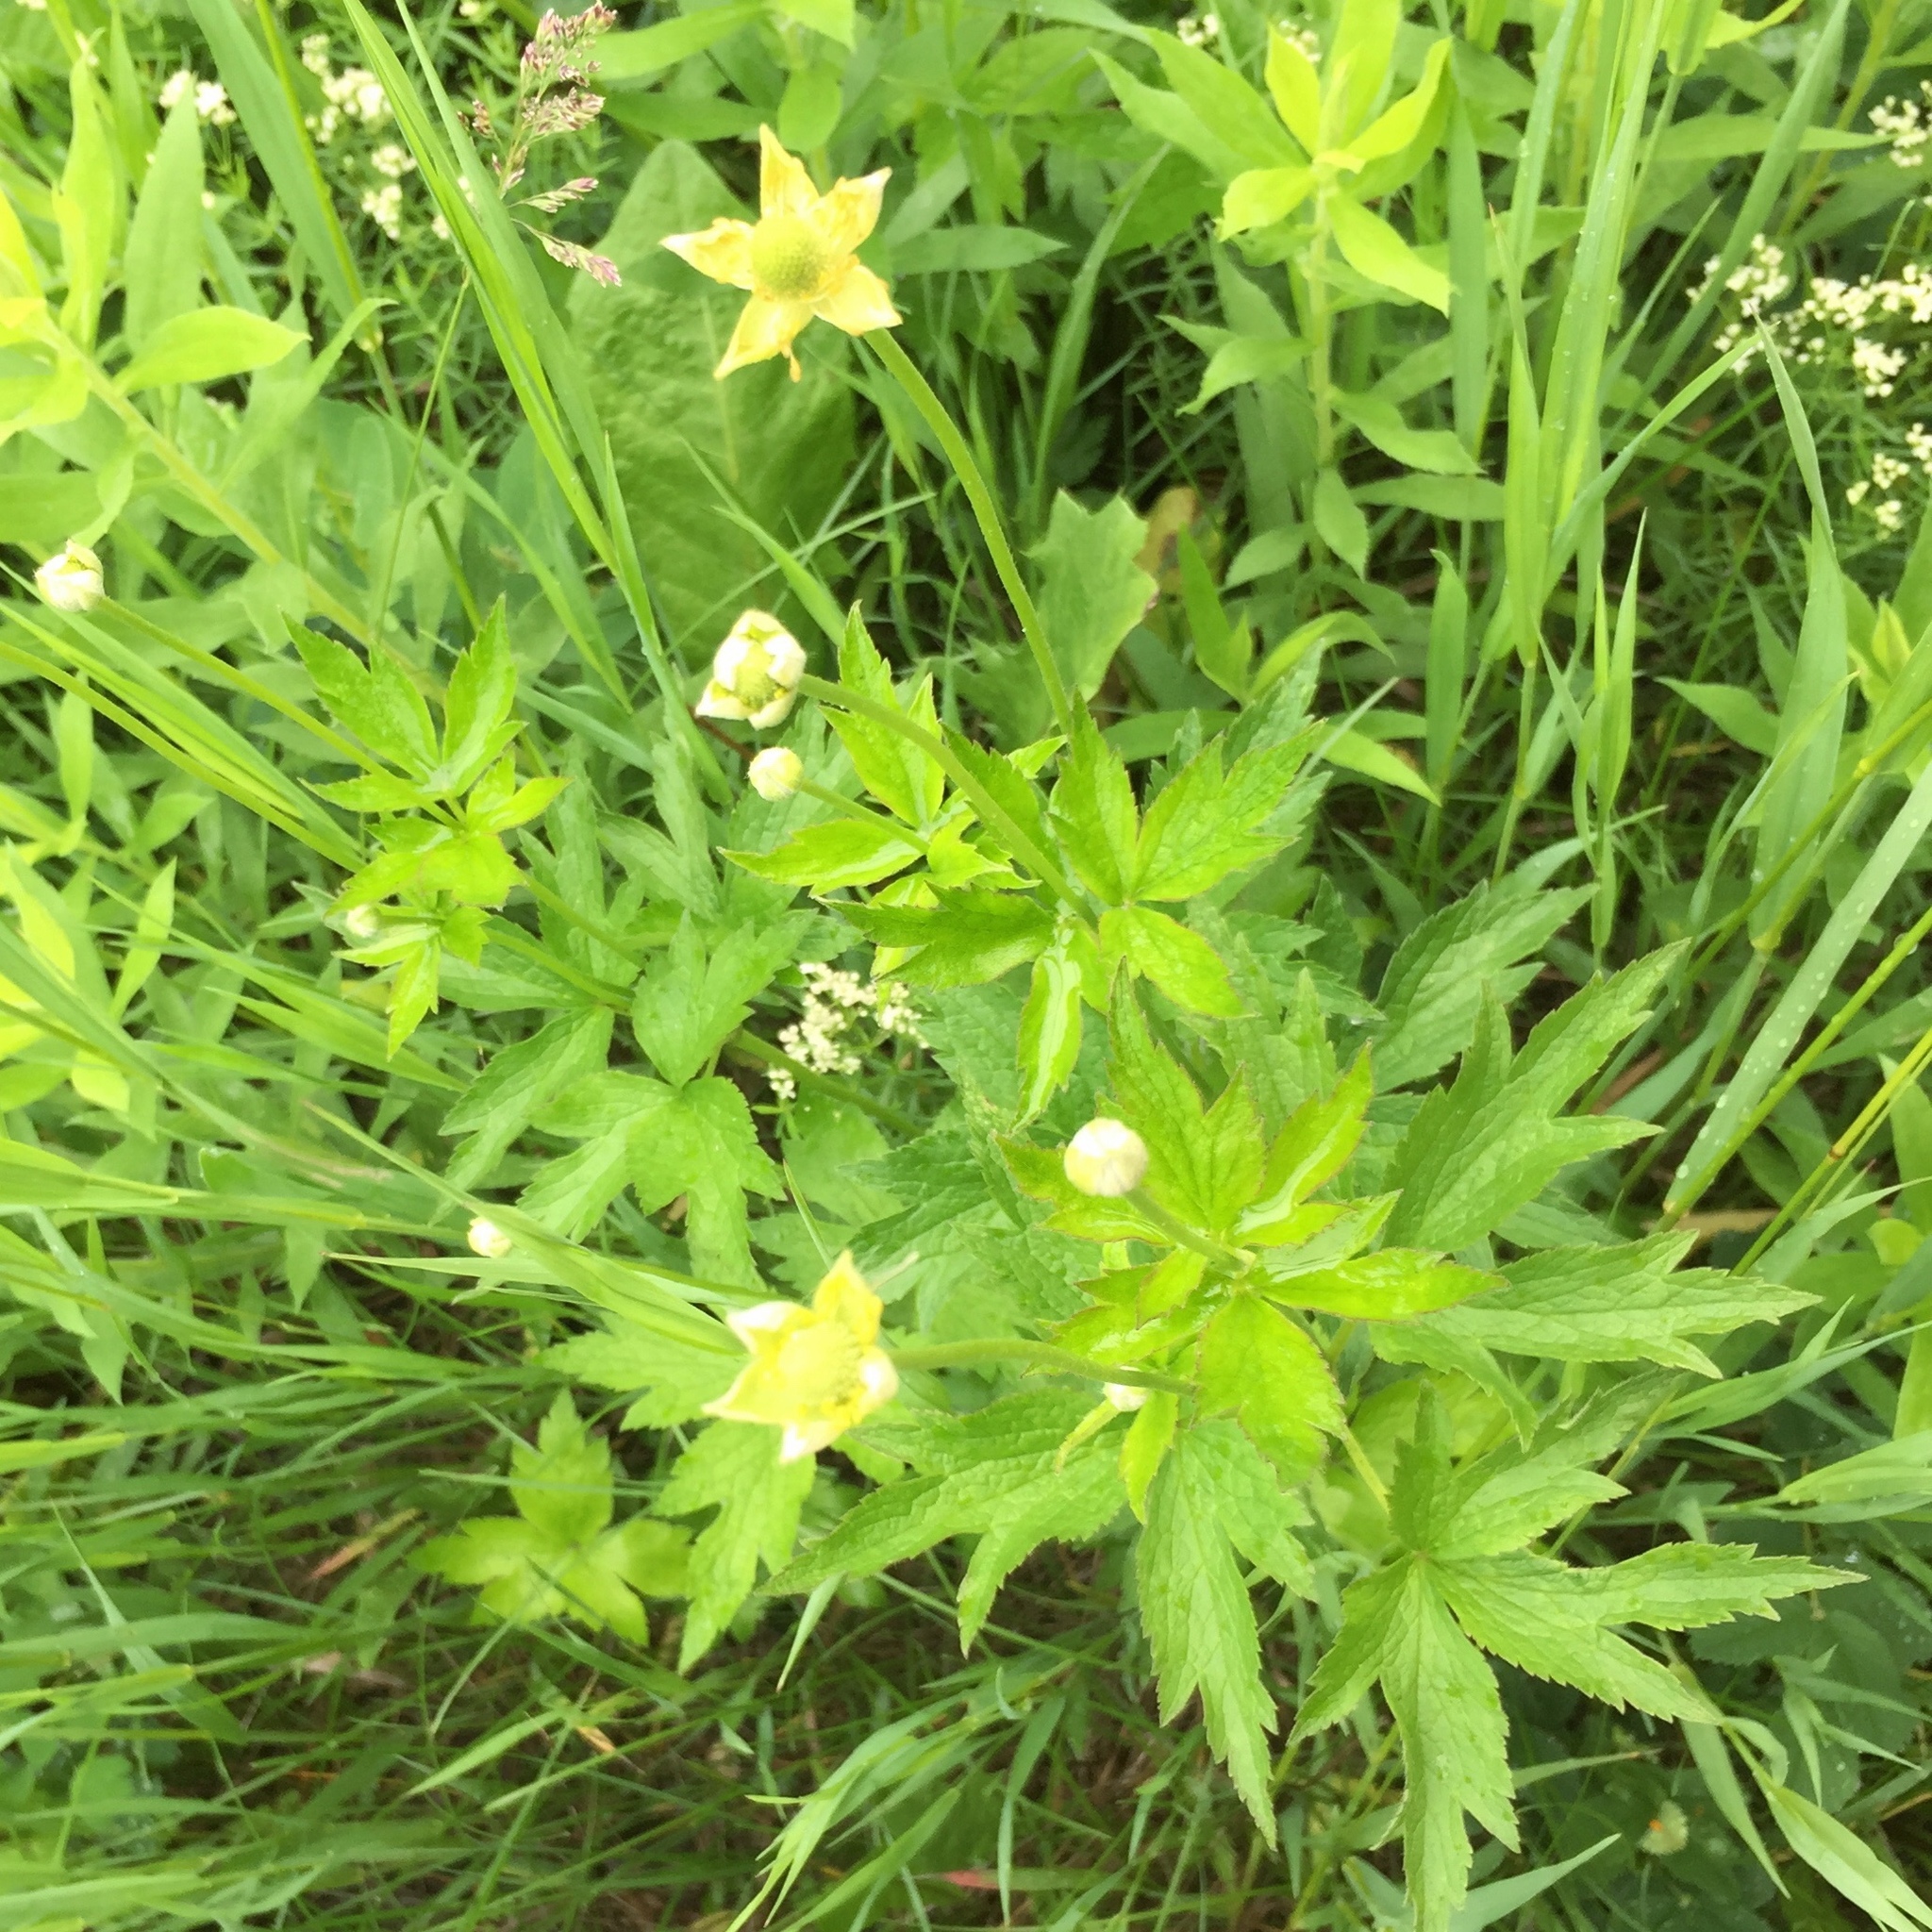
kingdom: Plantae
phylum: Tracheophyta
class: Magnoliopsida
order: Ranunculales
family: Ranunculaceae
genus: Anemone
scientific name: Anemone virginiana
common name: Tall anemone
